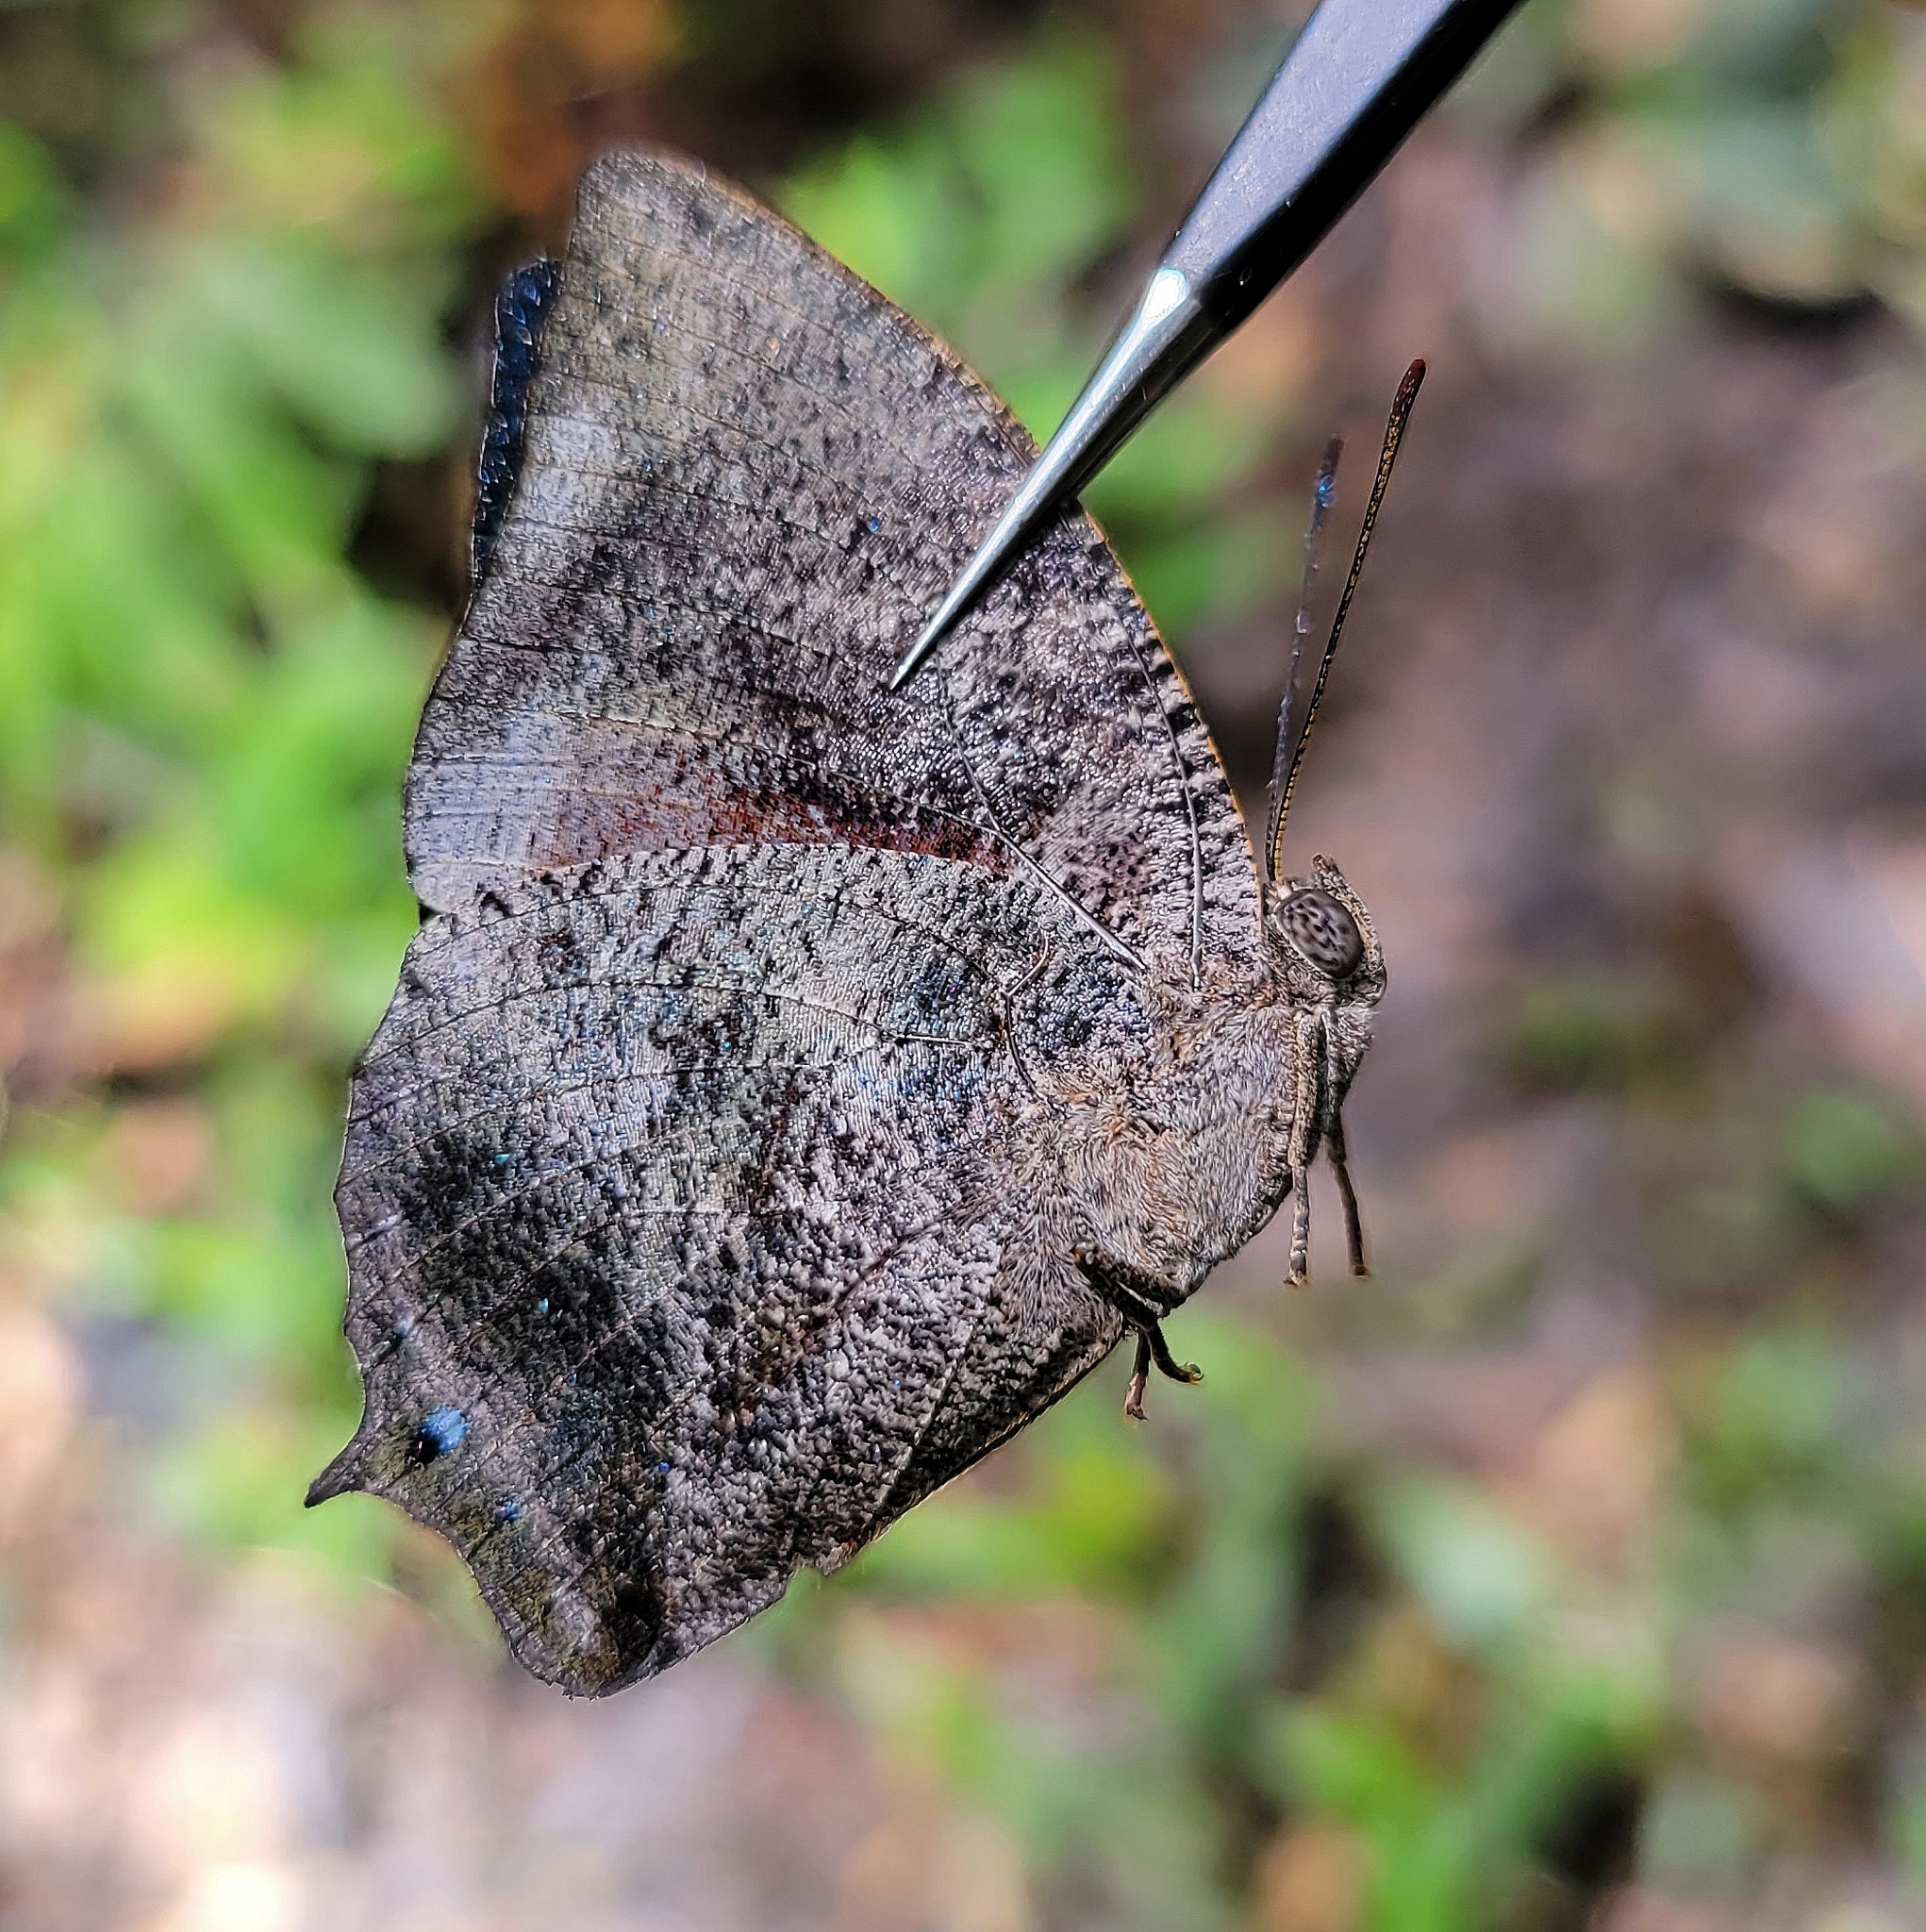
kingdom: Animalia
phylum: Arthropoda
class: Insecta
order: Lepidoptera
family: Nymphalidae
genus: Anaea
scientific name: Anaea xenocles
